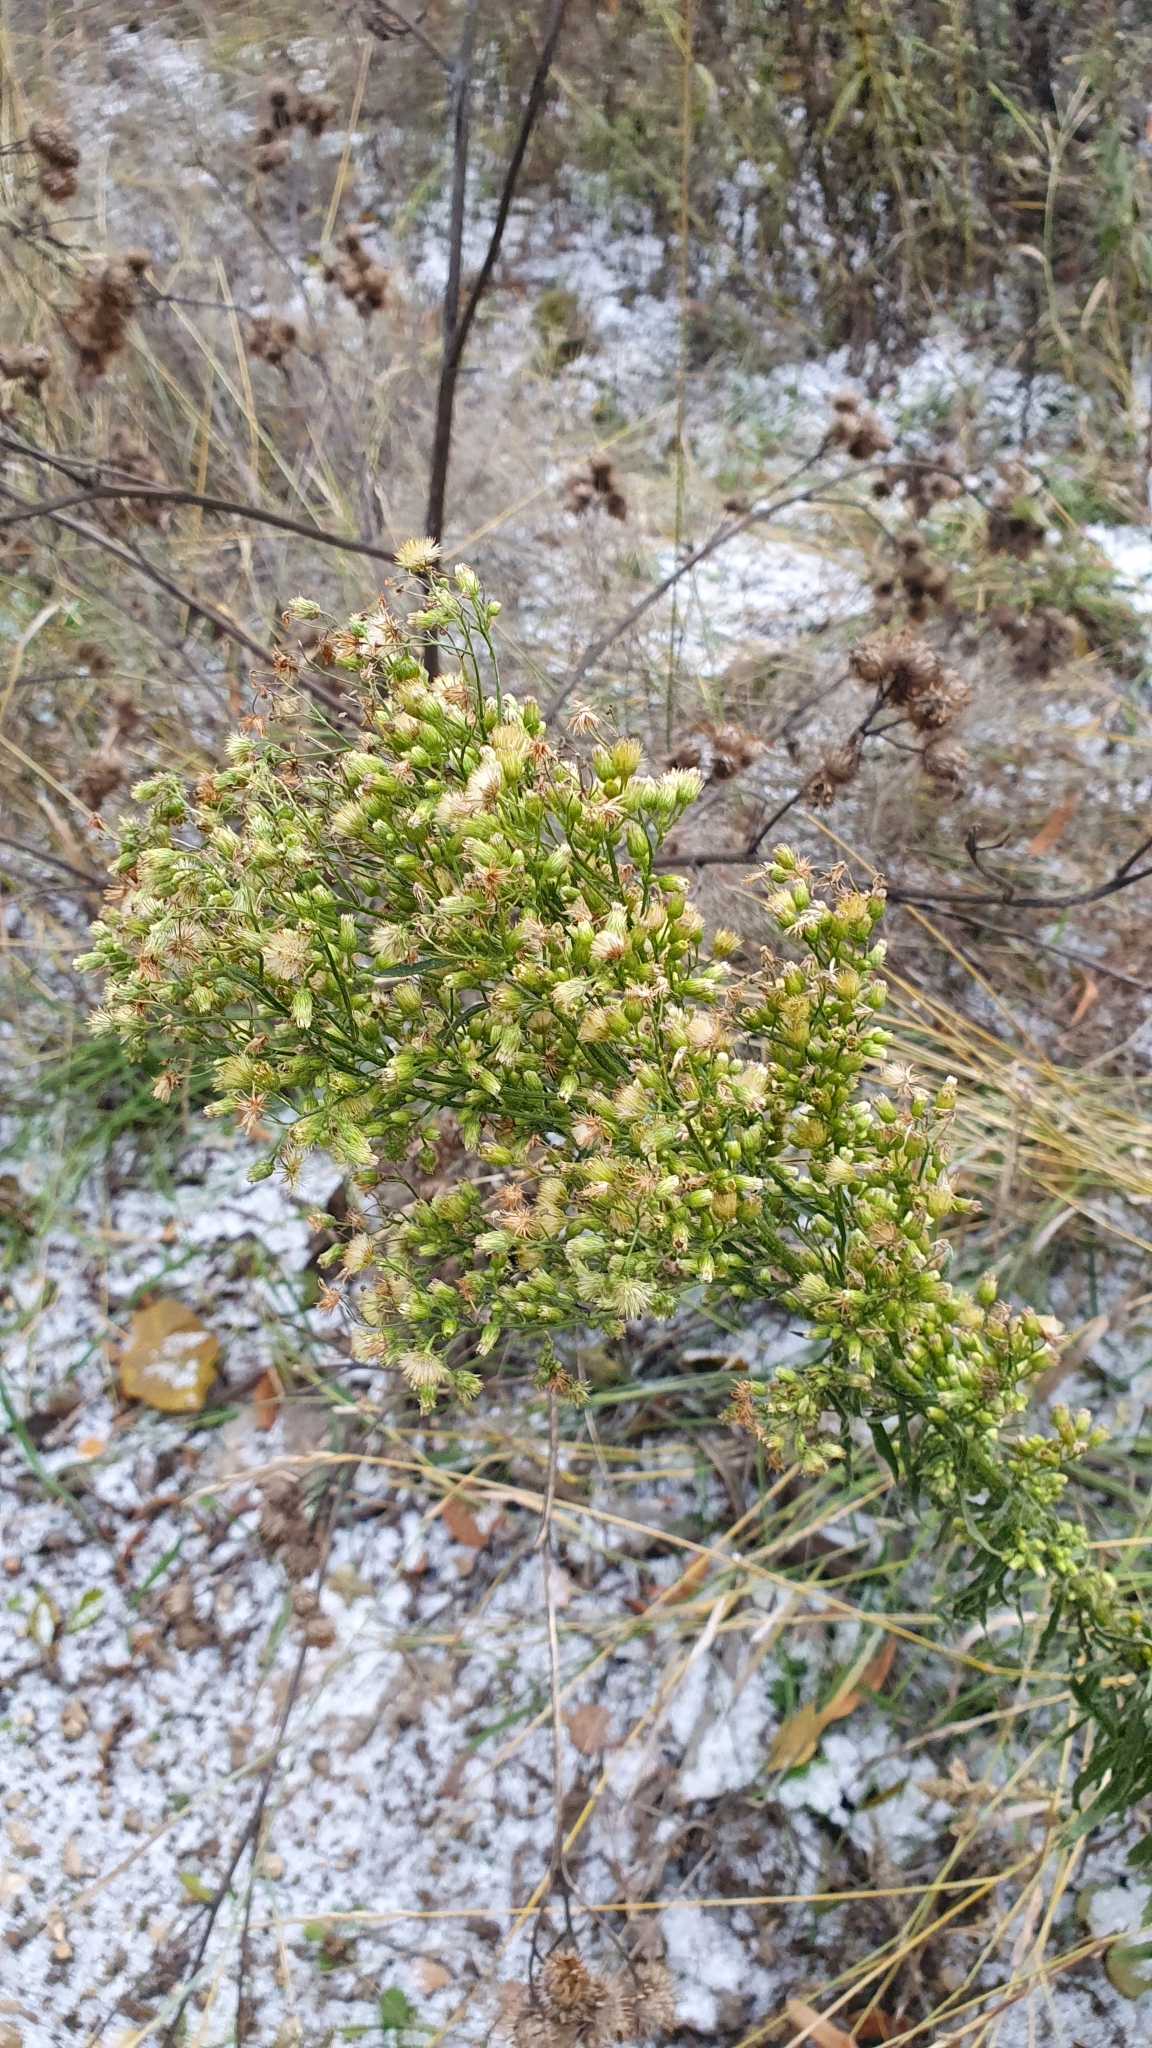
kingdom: Plantae
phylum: Tracheophyta
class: Magnoliopsida
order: Asterales
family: Asteraceae
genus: Erigeron
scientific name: Erigeron canadensis
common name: Canadian fleabane
